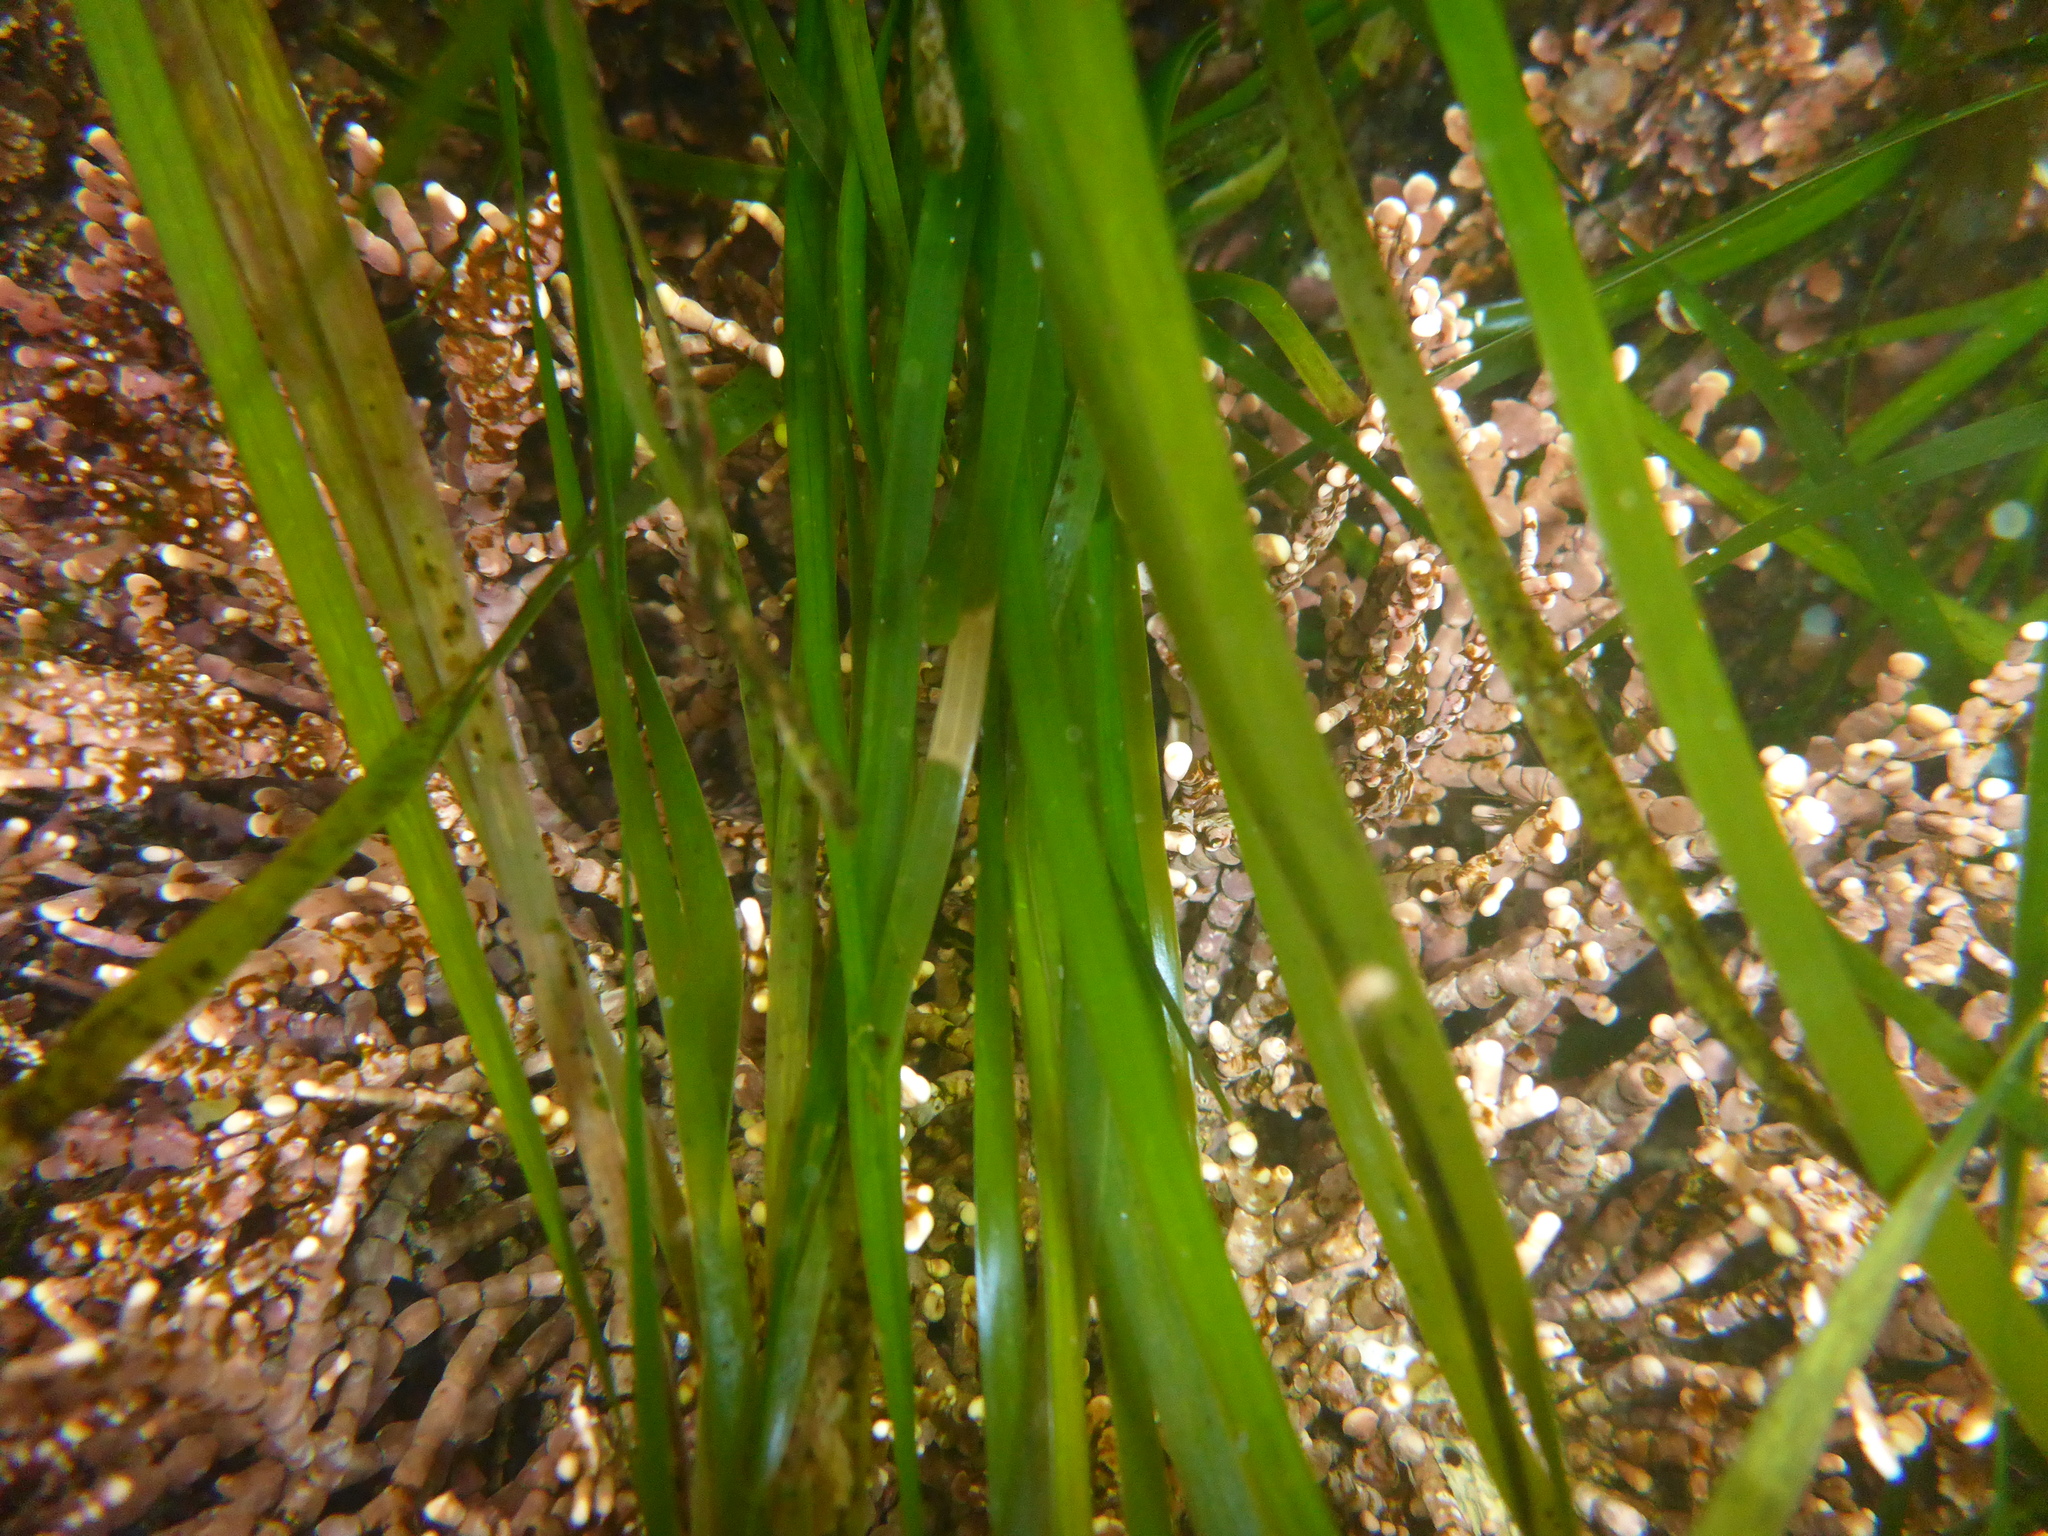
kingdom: Plantae
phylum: Tracheophyta
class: Liliopsida
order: Alismatales
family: Zosteraceae
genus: Phyllospadix
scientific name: Phyllospadix scouleri
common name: Species code: ps
